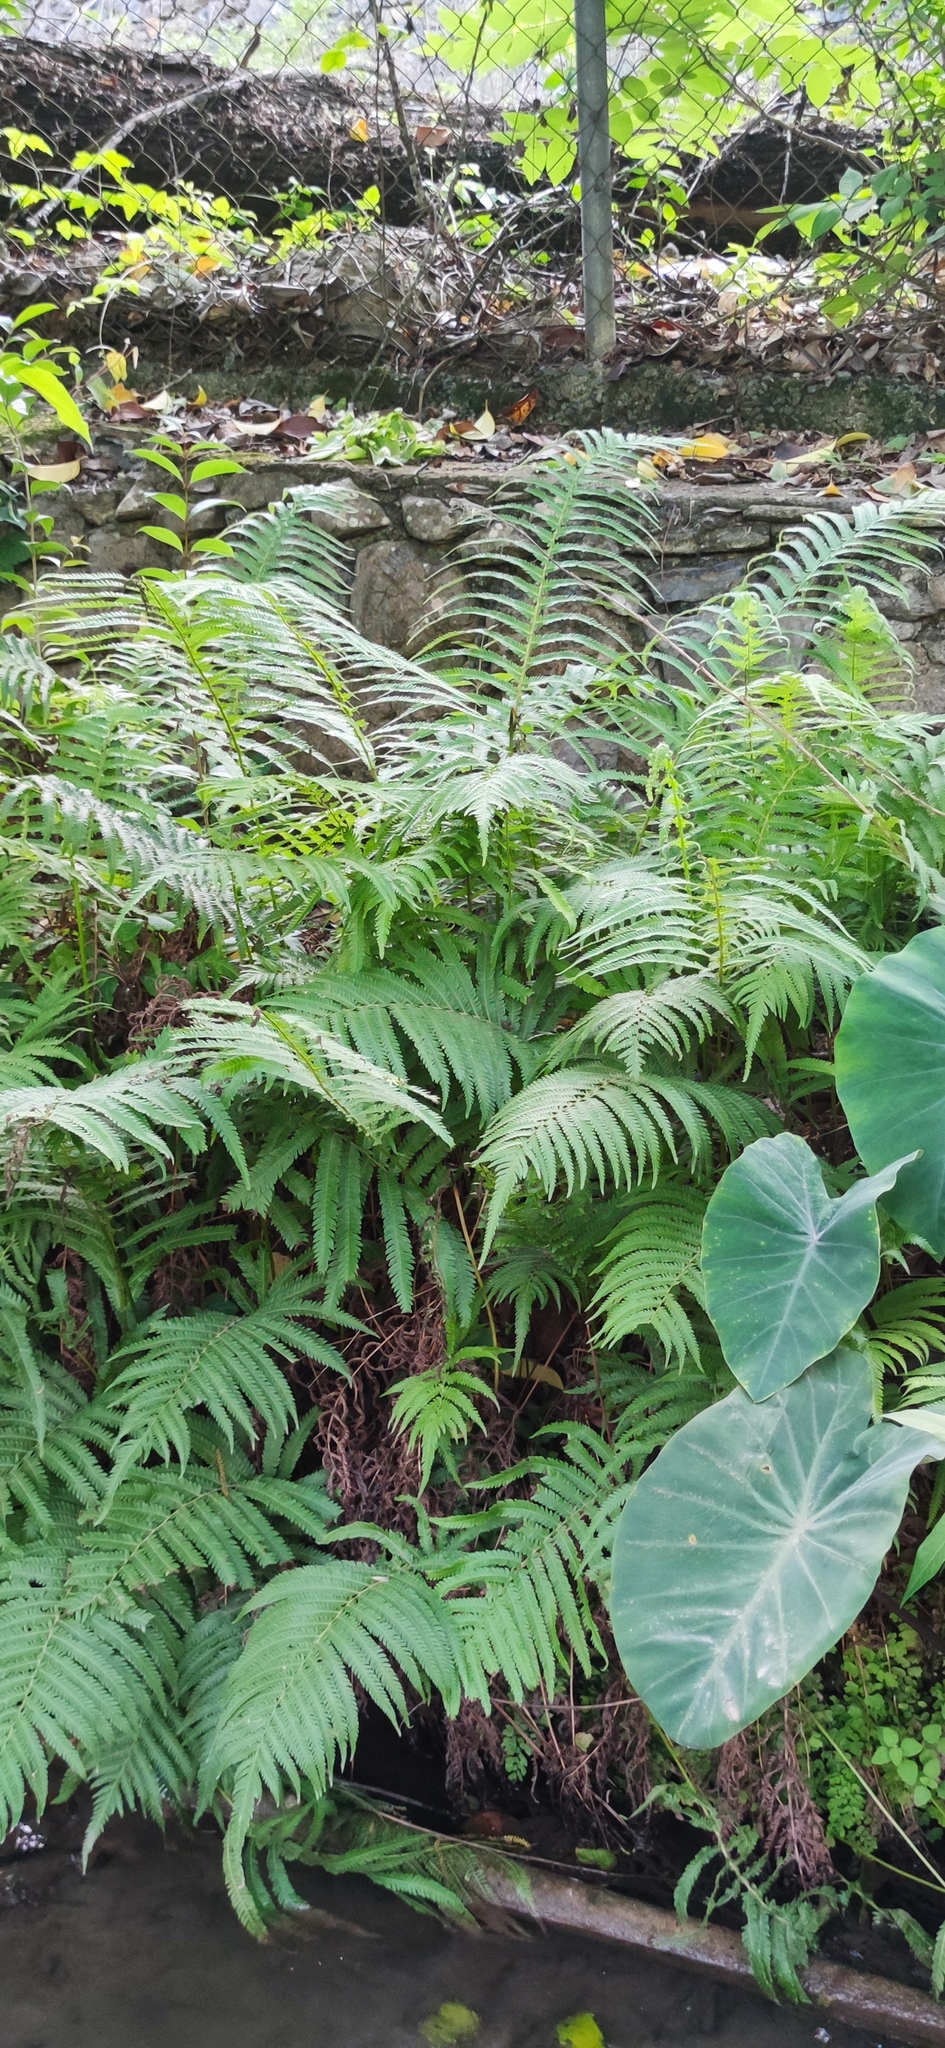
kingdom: Plantae
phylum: Tracheophyta
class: Polypodiopsida
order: Polypodiales
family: Thelypteridaceae
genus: Pelazoneuron
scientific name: Pelazoneuron puberulum
